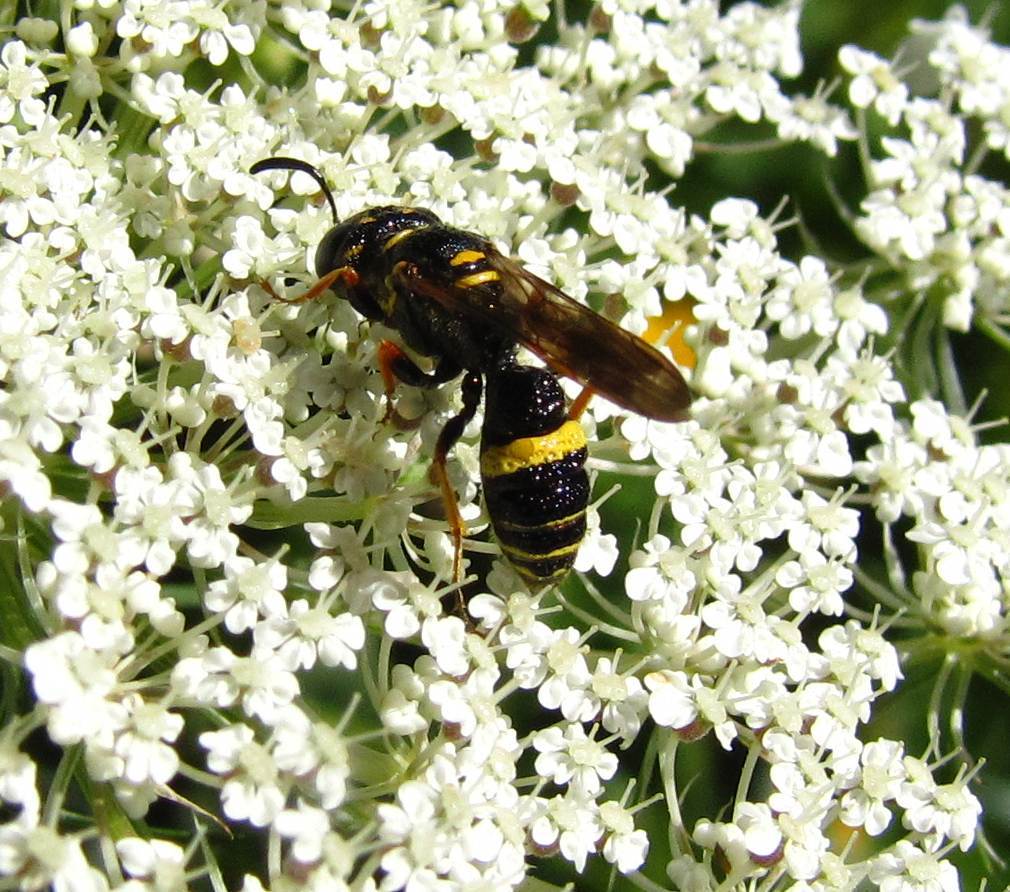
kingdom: Animalia
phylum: Arthropoda
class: Insecta
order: Hymenoptera
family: Crabronidae
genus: Philanthus
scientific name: Philanthus gibbosus
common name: Humped beewolf
